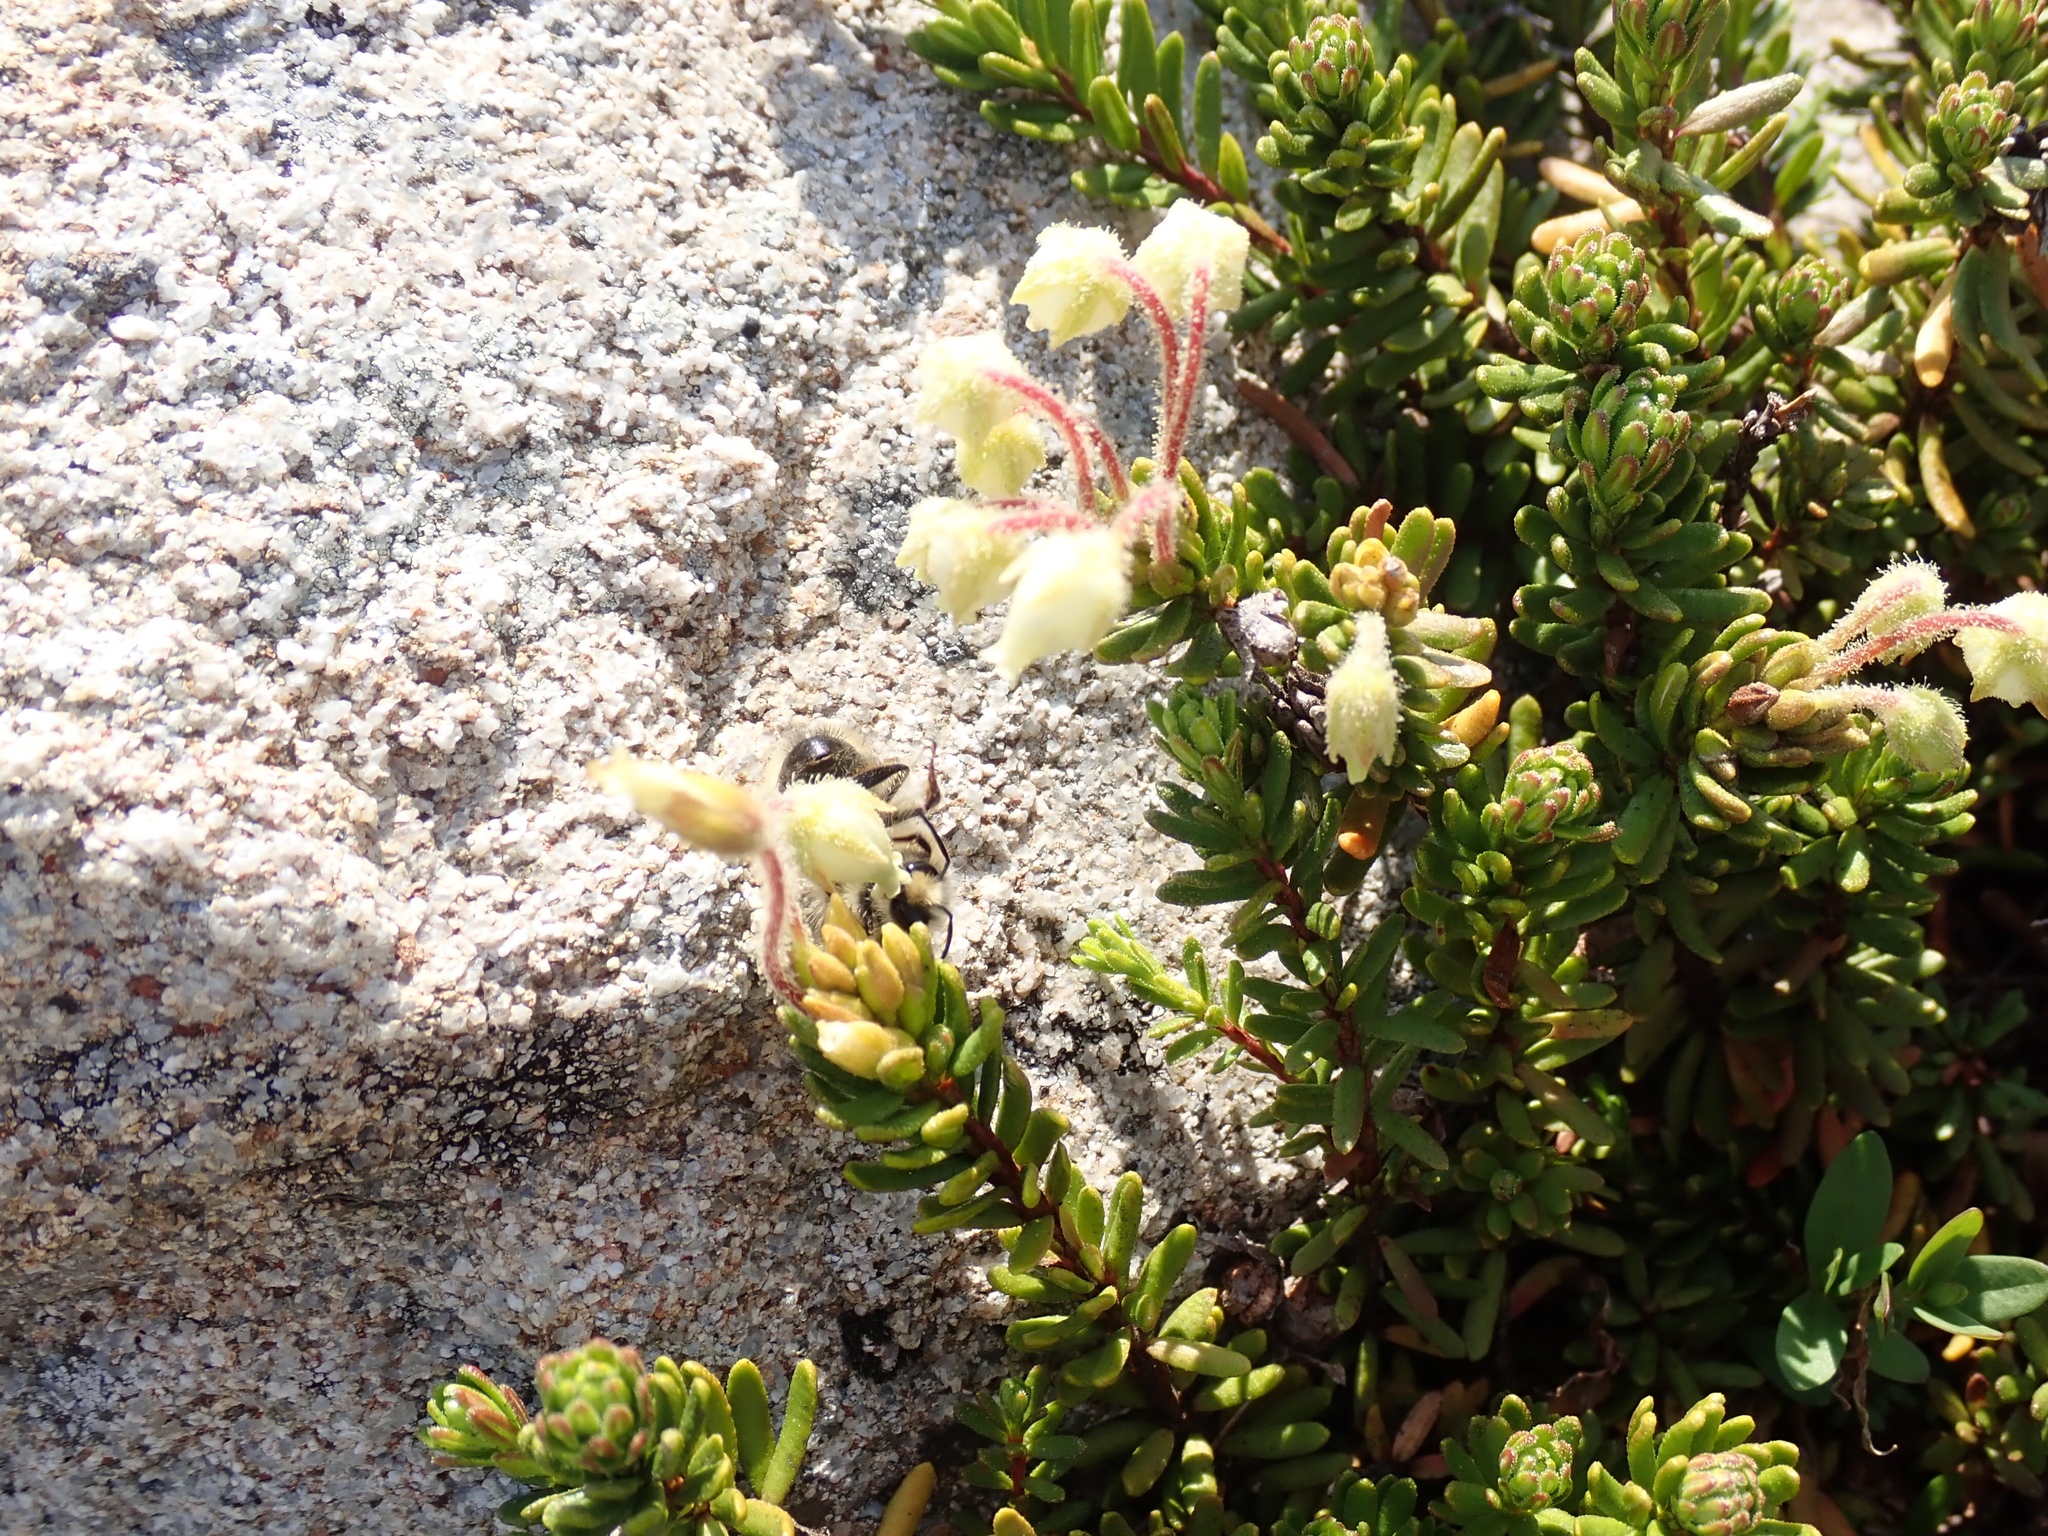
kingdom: Plantae
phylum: Tracheophyta
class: Magnoliopsida
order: Ericales
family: Ericaceae
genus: Phyllodoce
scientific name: Phyllodoce glanduliflora
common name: Cream mountain heather
